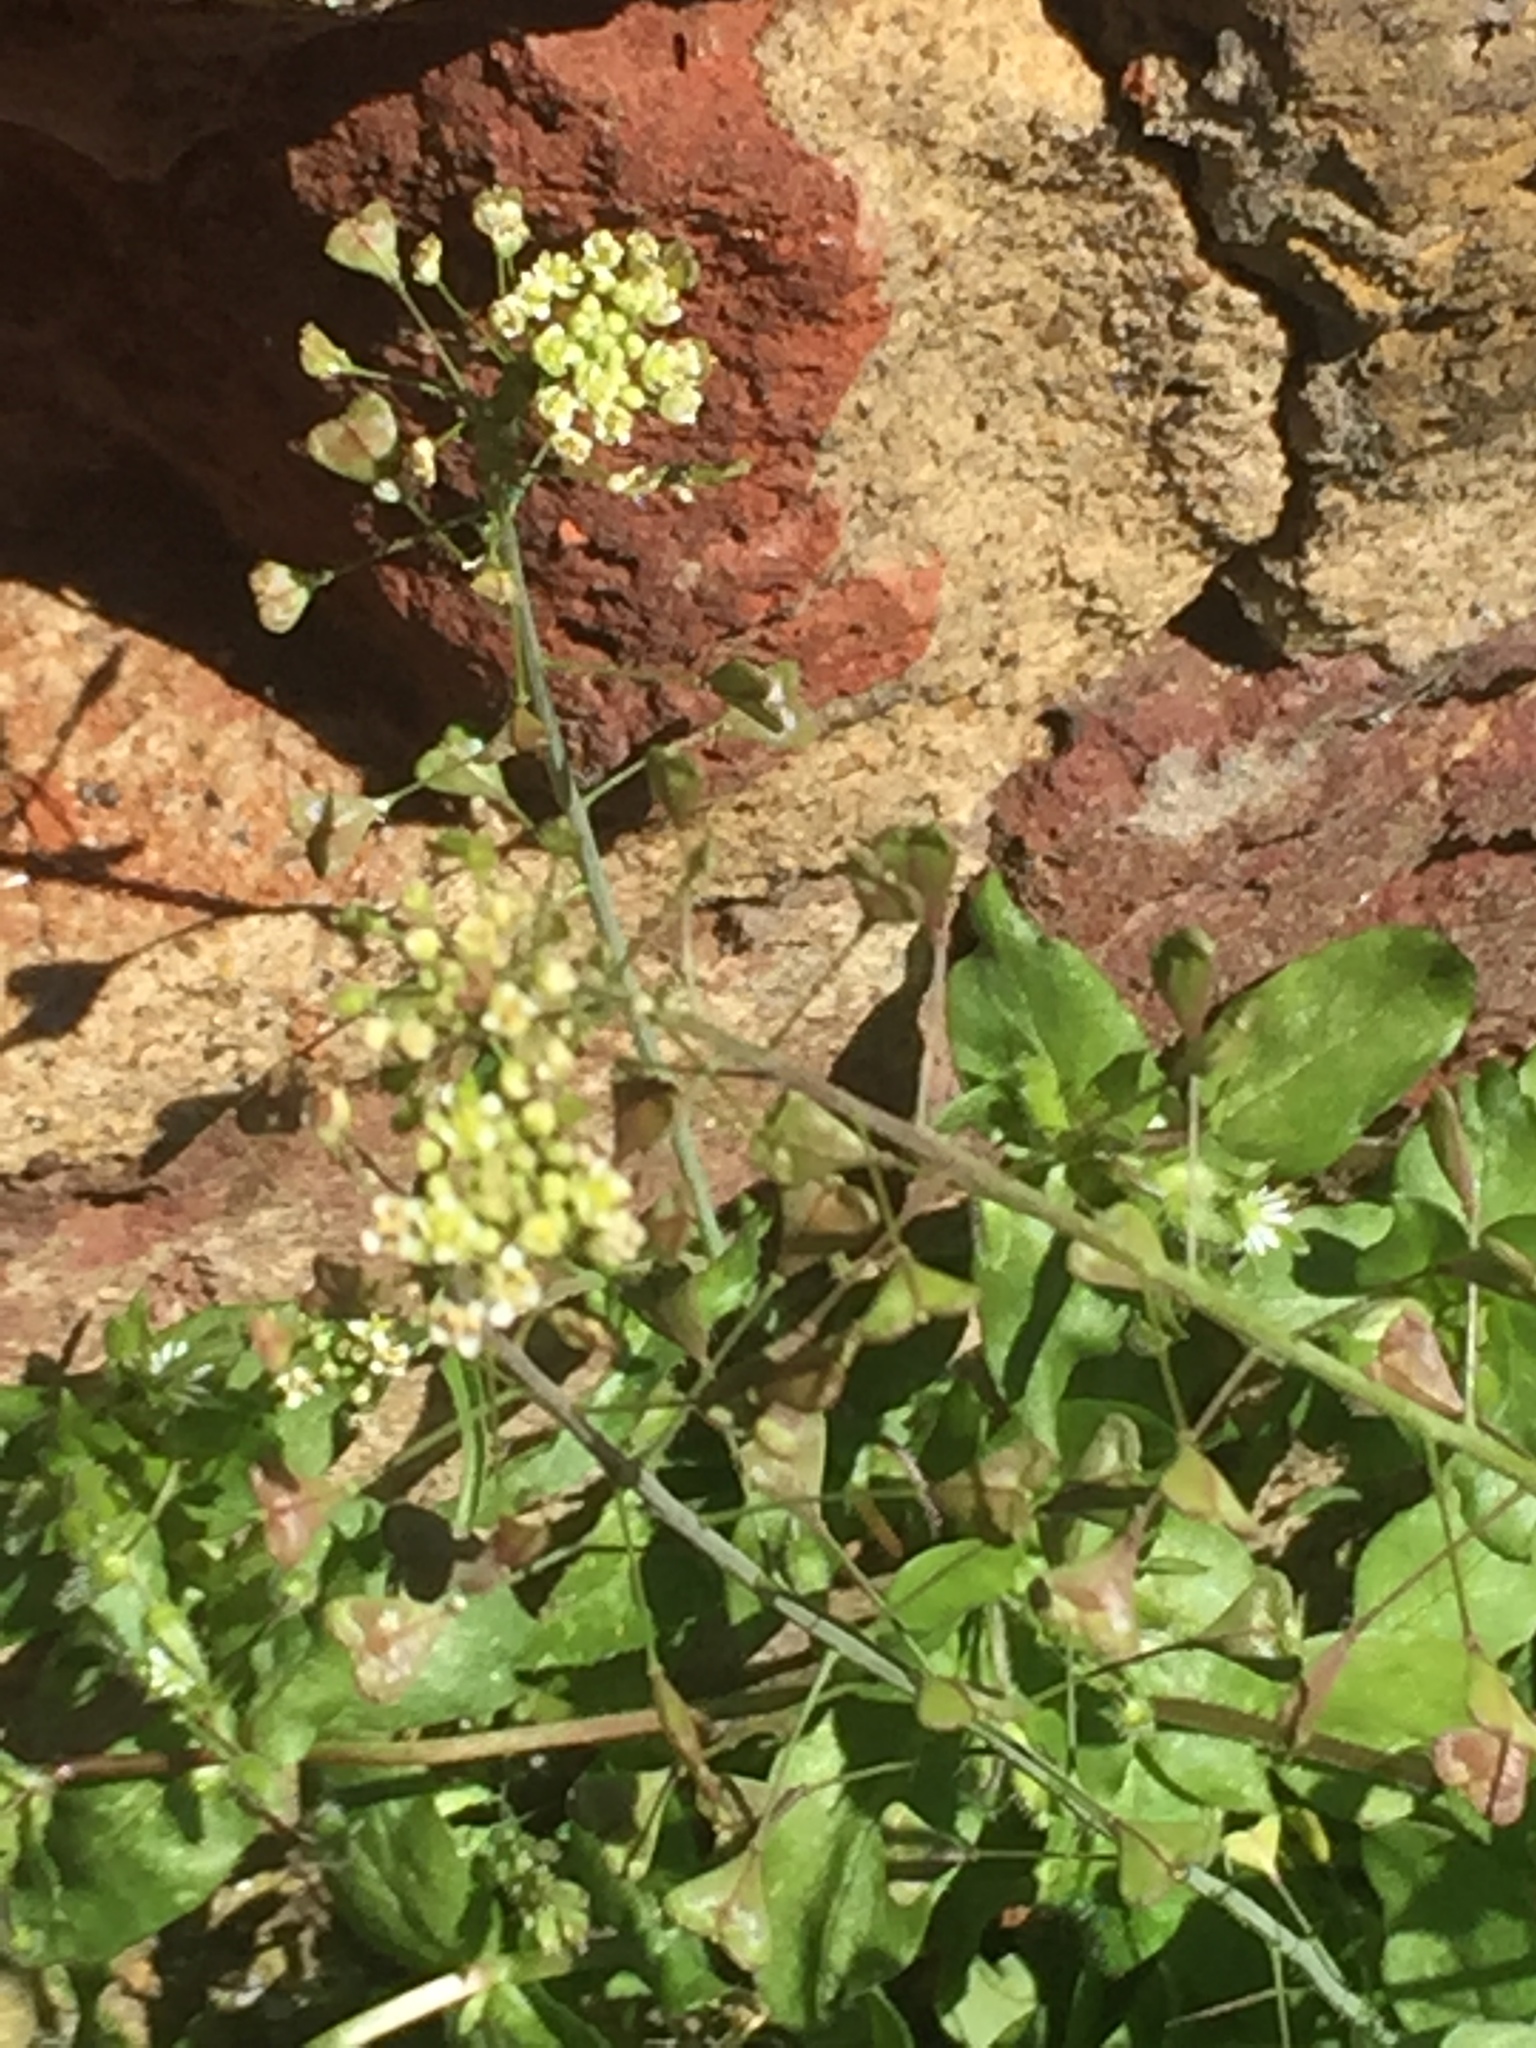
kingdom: Plantae
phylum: Tracheophyta
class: Magnoliopsida
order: Brassicales
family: Brassicaceae
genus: Capsella
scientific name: Capsella bursa-pastoris
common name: Shepherd's purse
